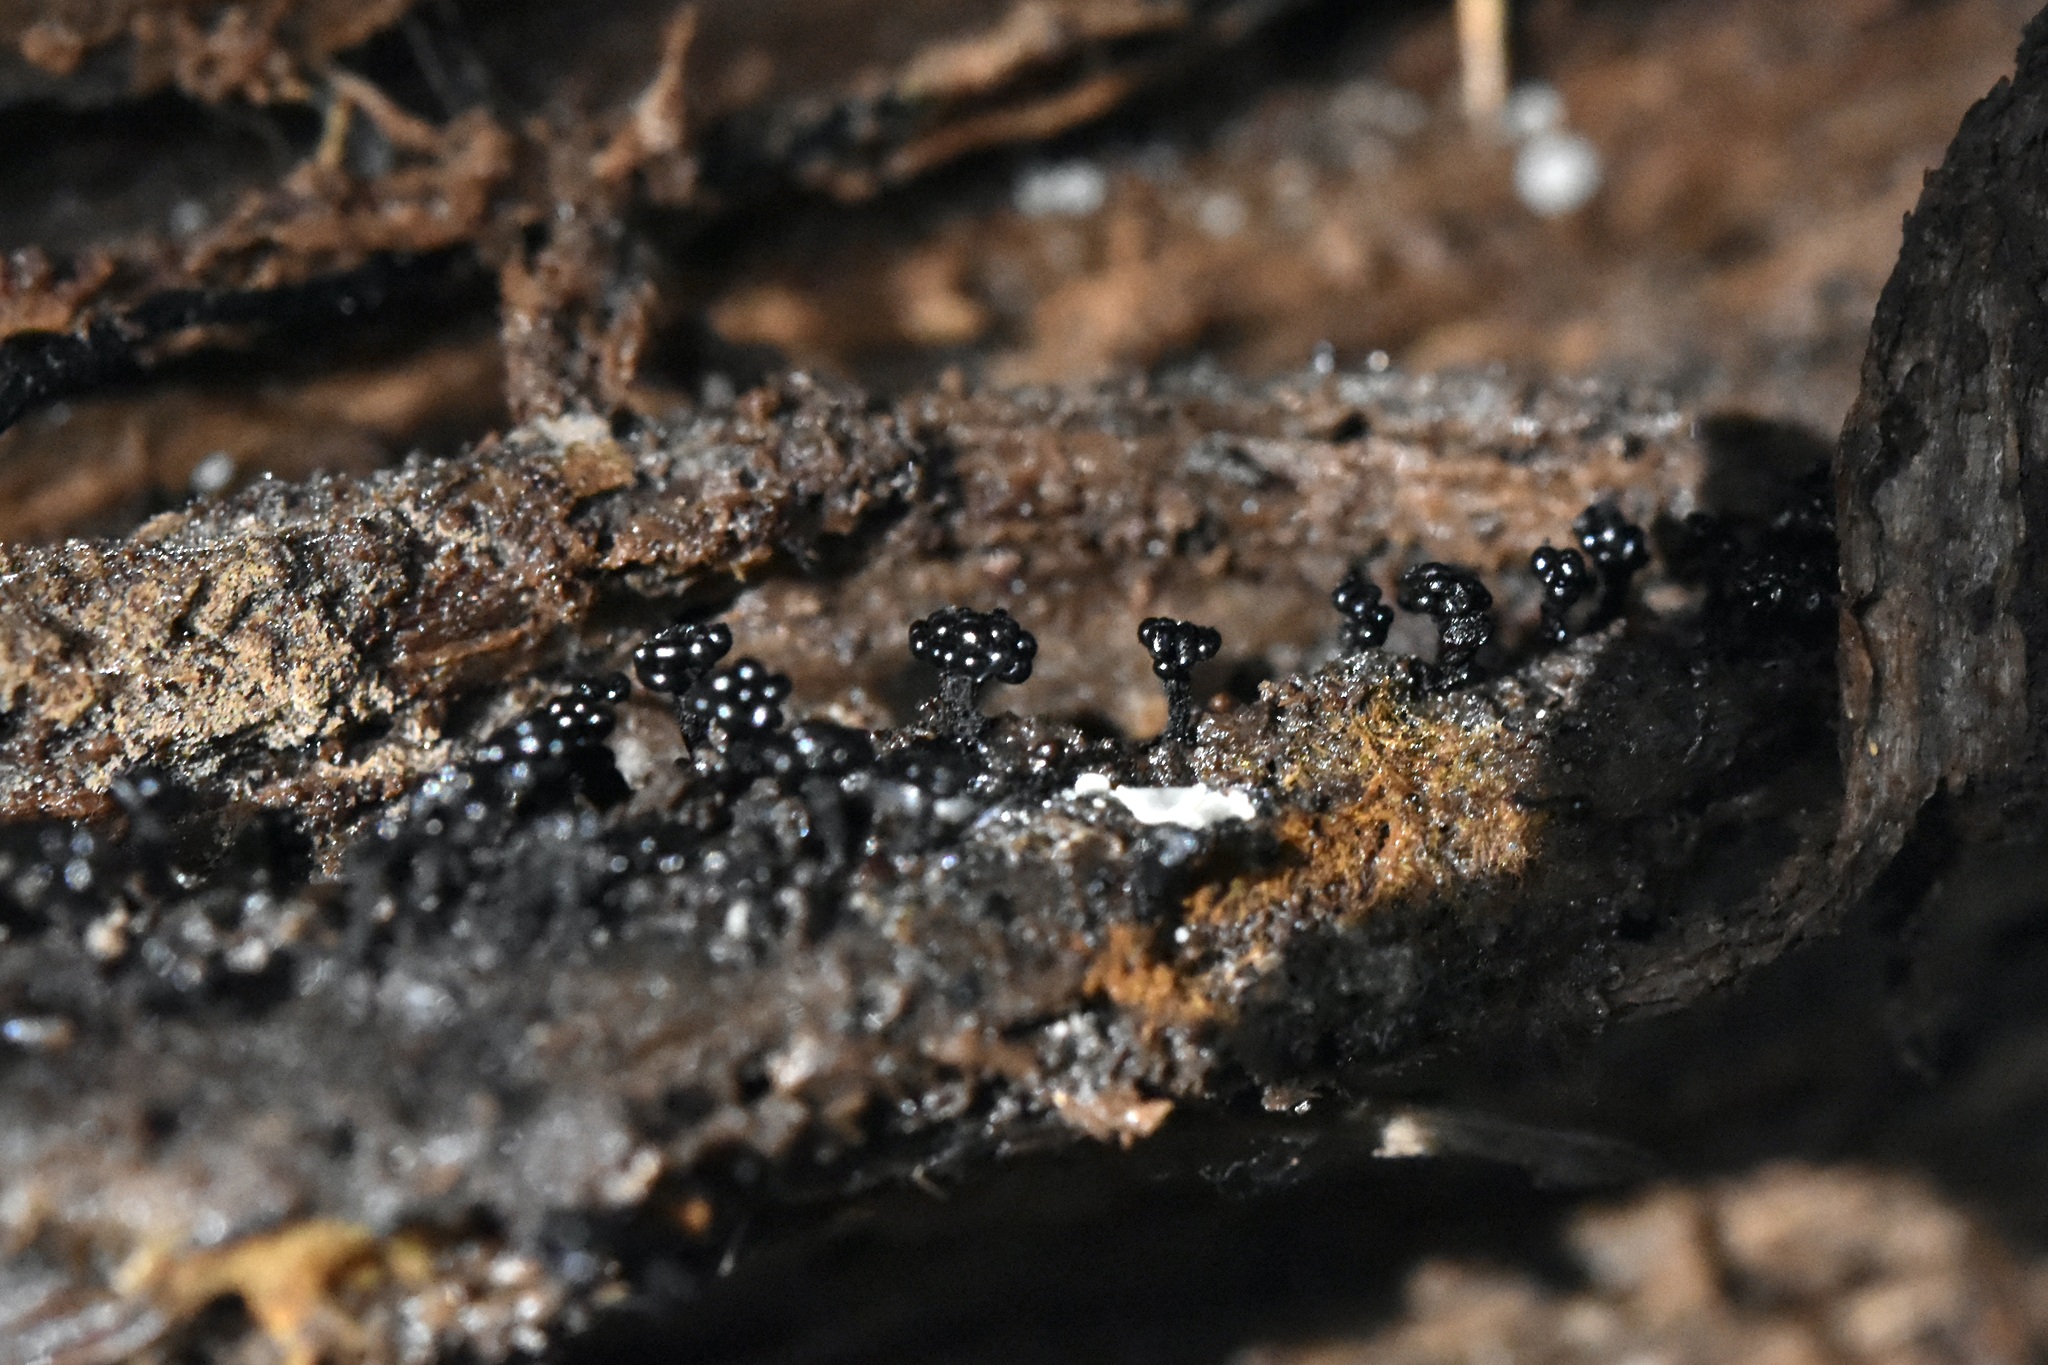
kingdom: Protozoa
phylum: Mycetozoa
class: Myxomycetes
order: Trichiales
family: Trichiaceae
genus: Metatrichia
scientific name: Metatrichia vesparia
